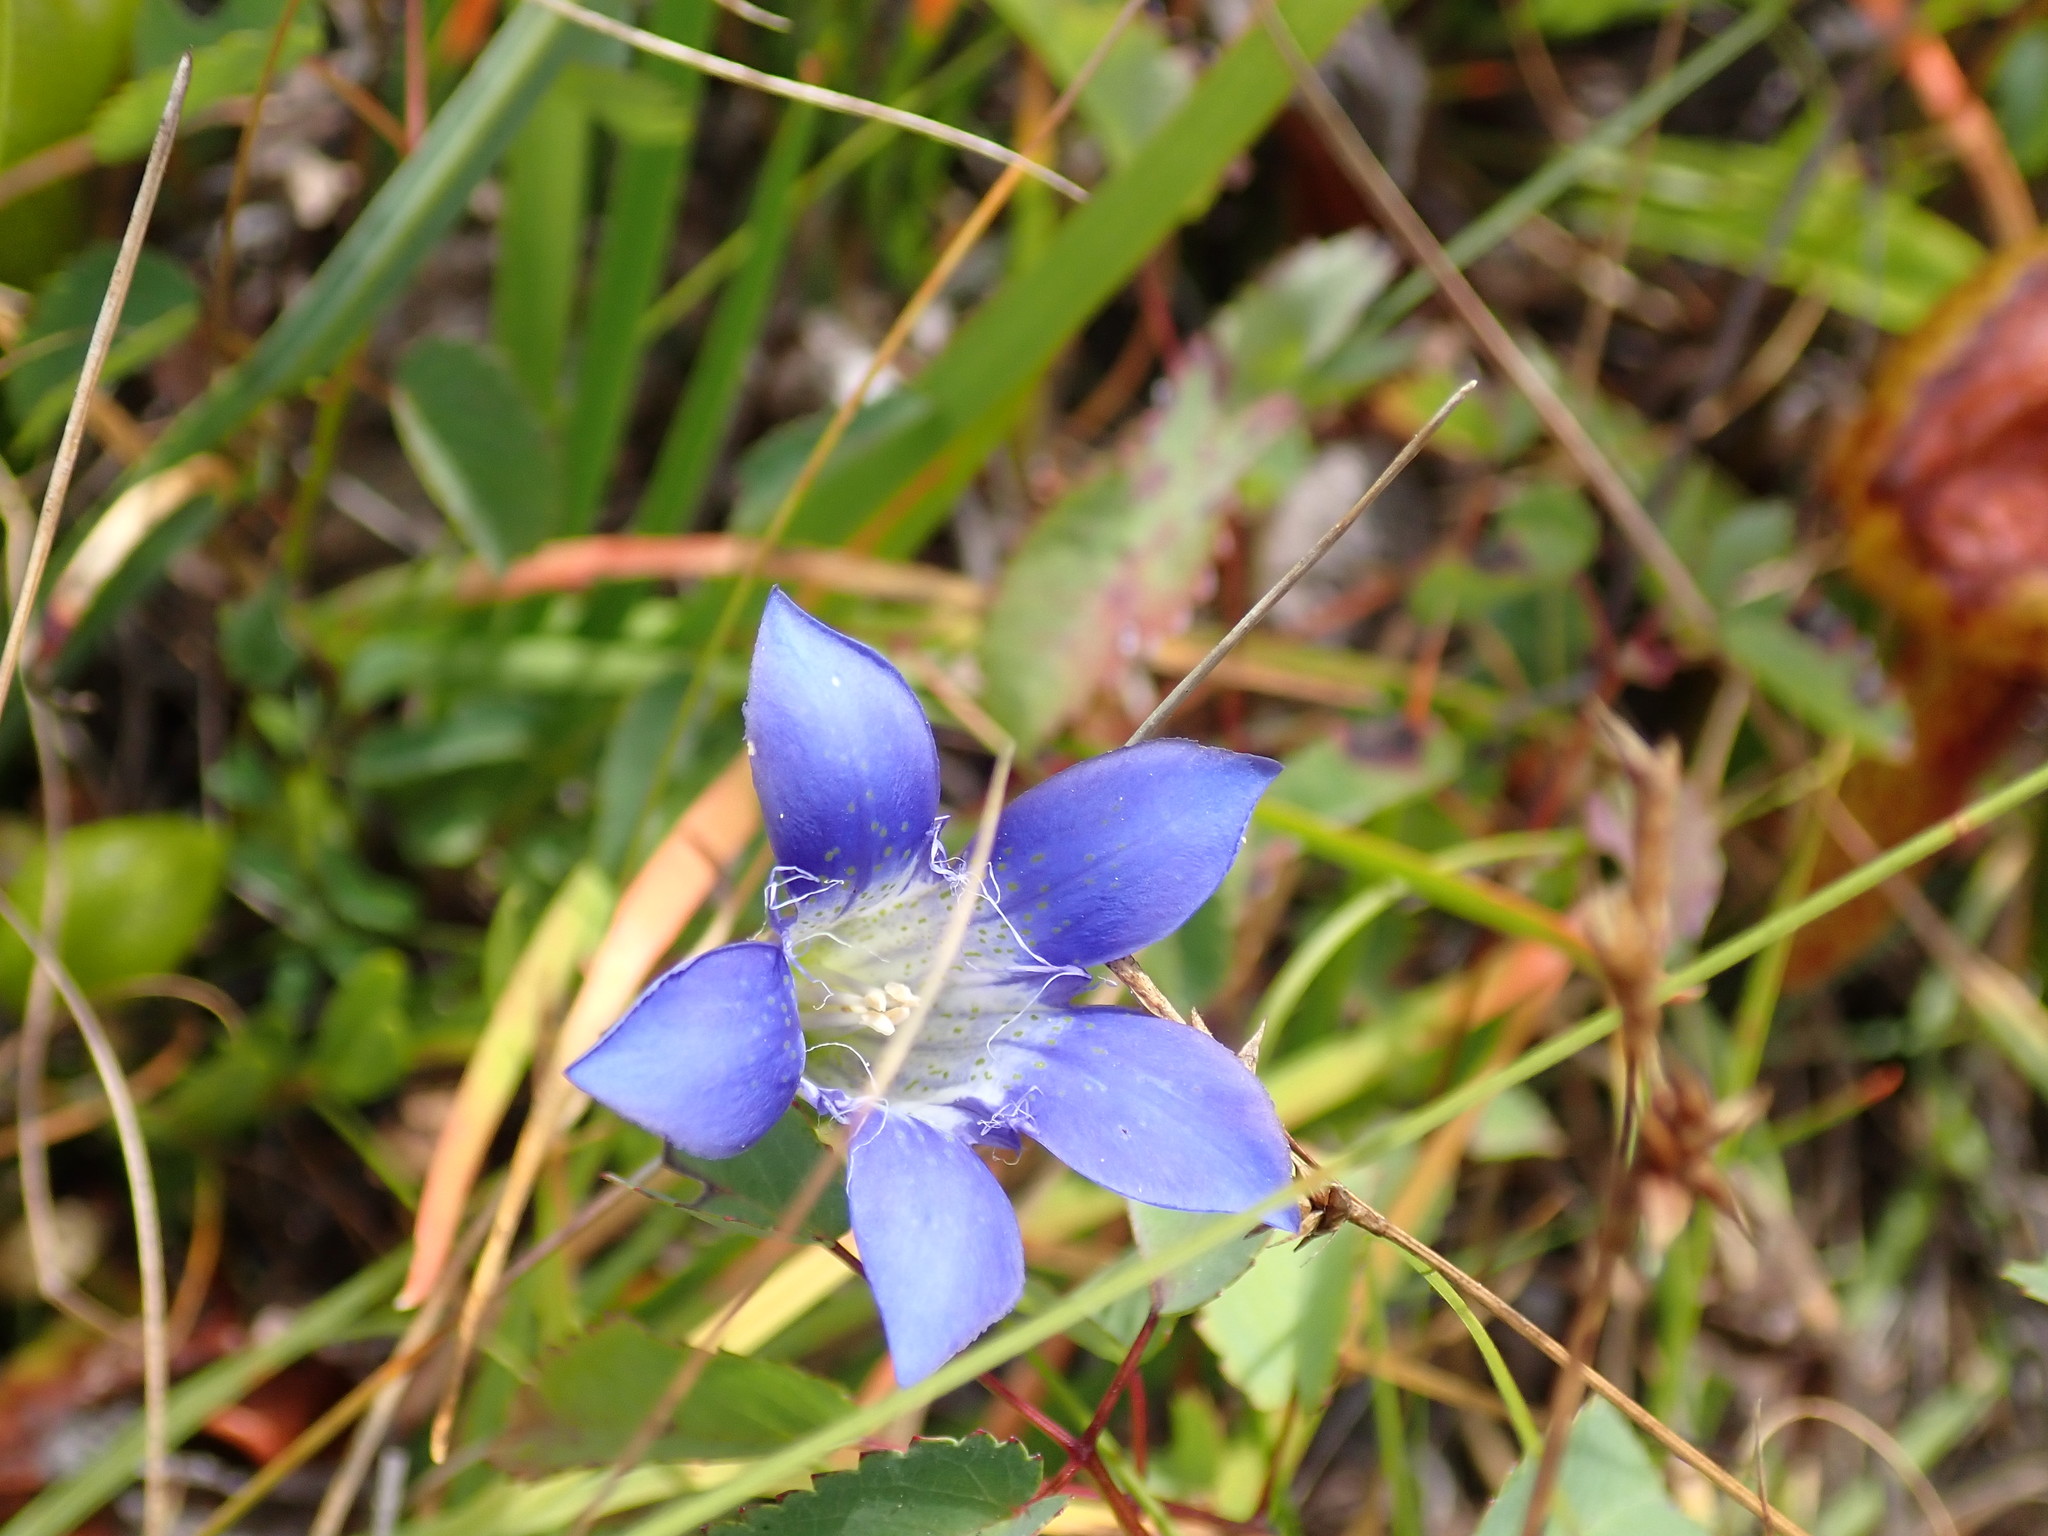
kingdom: Plantae
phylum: Tracheophyta
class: Magnoliopsida
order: Gentianales
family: Gentianaceae
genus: Gentiana
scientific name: Gentiana setigera
